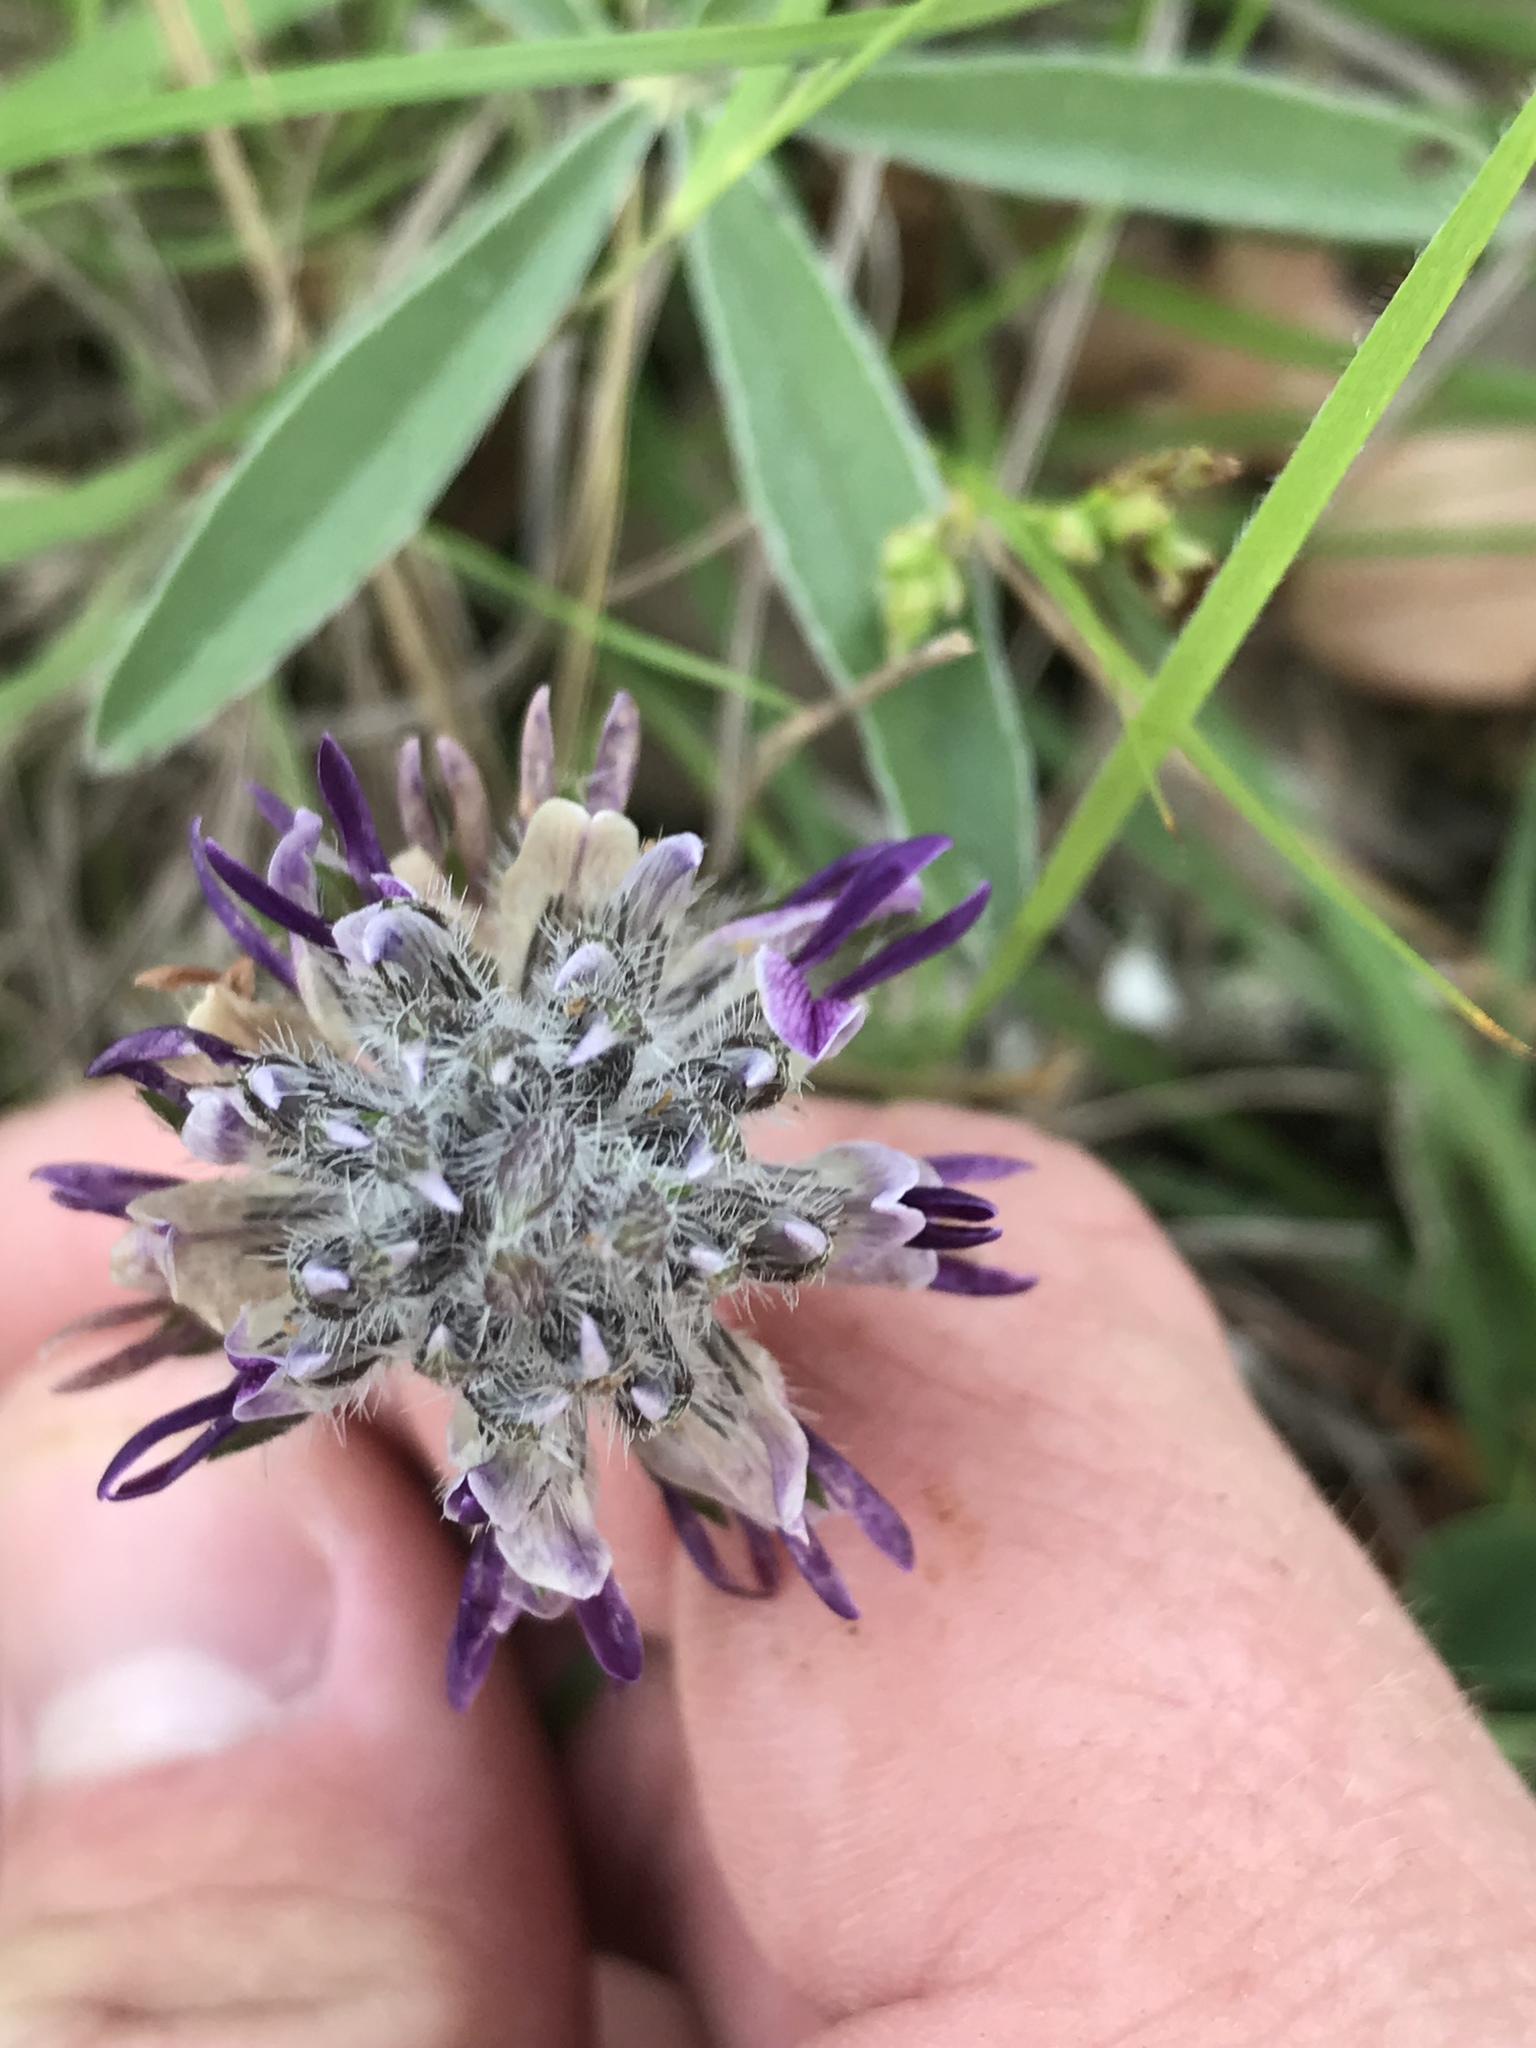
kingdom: Plantae
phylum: Tracheophyta
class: Magnoliopsida
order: Fabales
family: Fabaceae
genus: Pediomelum
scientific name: Pediomelum hypogaeum
